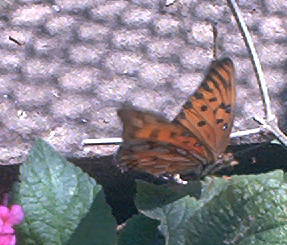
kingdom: Animalia
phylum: Arthropoda
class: Insecta
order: Lepidoptera
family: Nymphalidae
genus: Dione
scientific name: Dione vanillae
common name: Gulf fritillary
